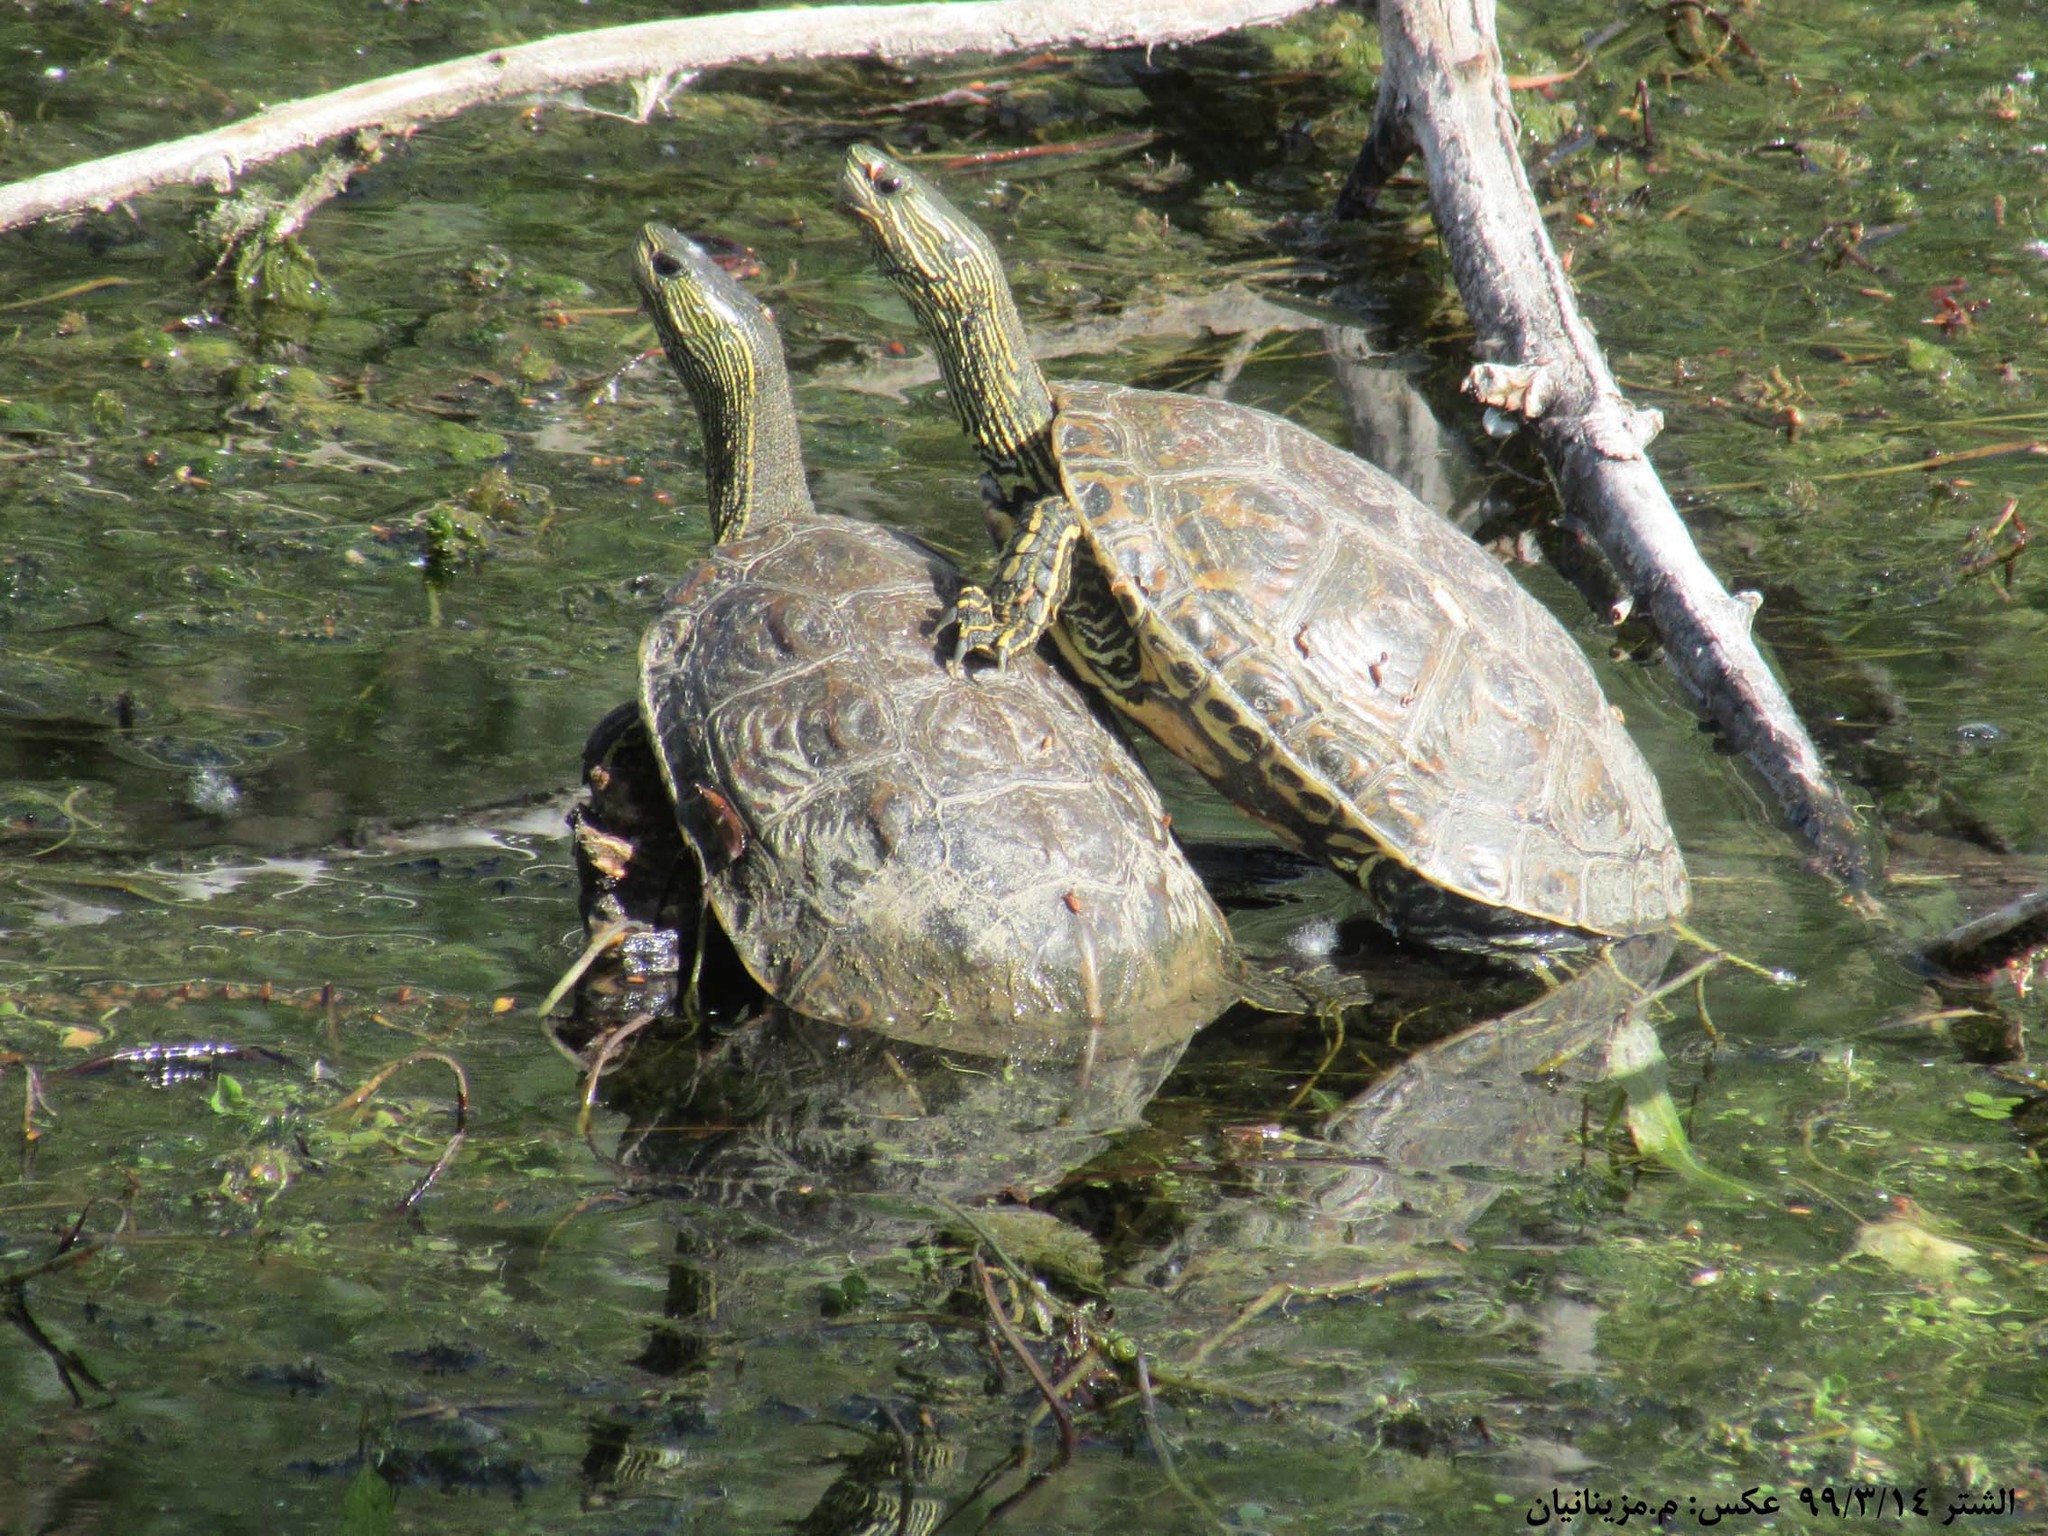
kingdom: Animalia
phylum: Chordata
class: Testudines
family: Geoemydidae
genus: Mauremys
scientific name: Mauremys caspica
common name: Caspian turtle
